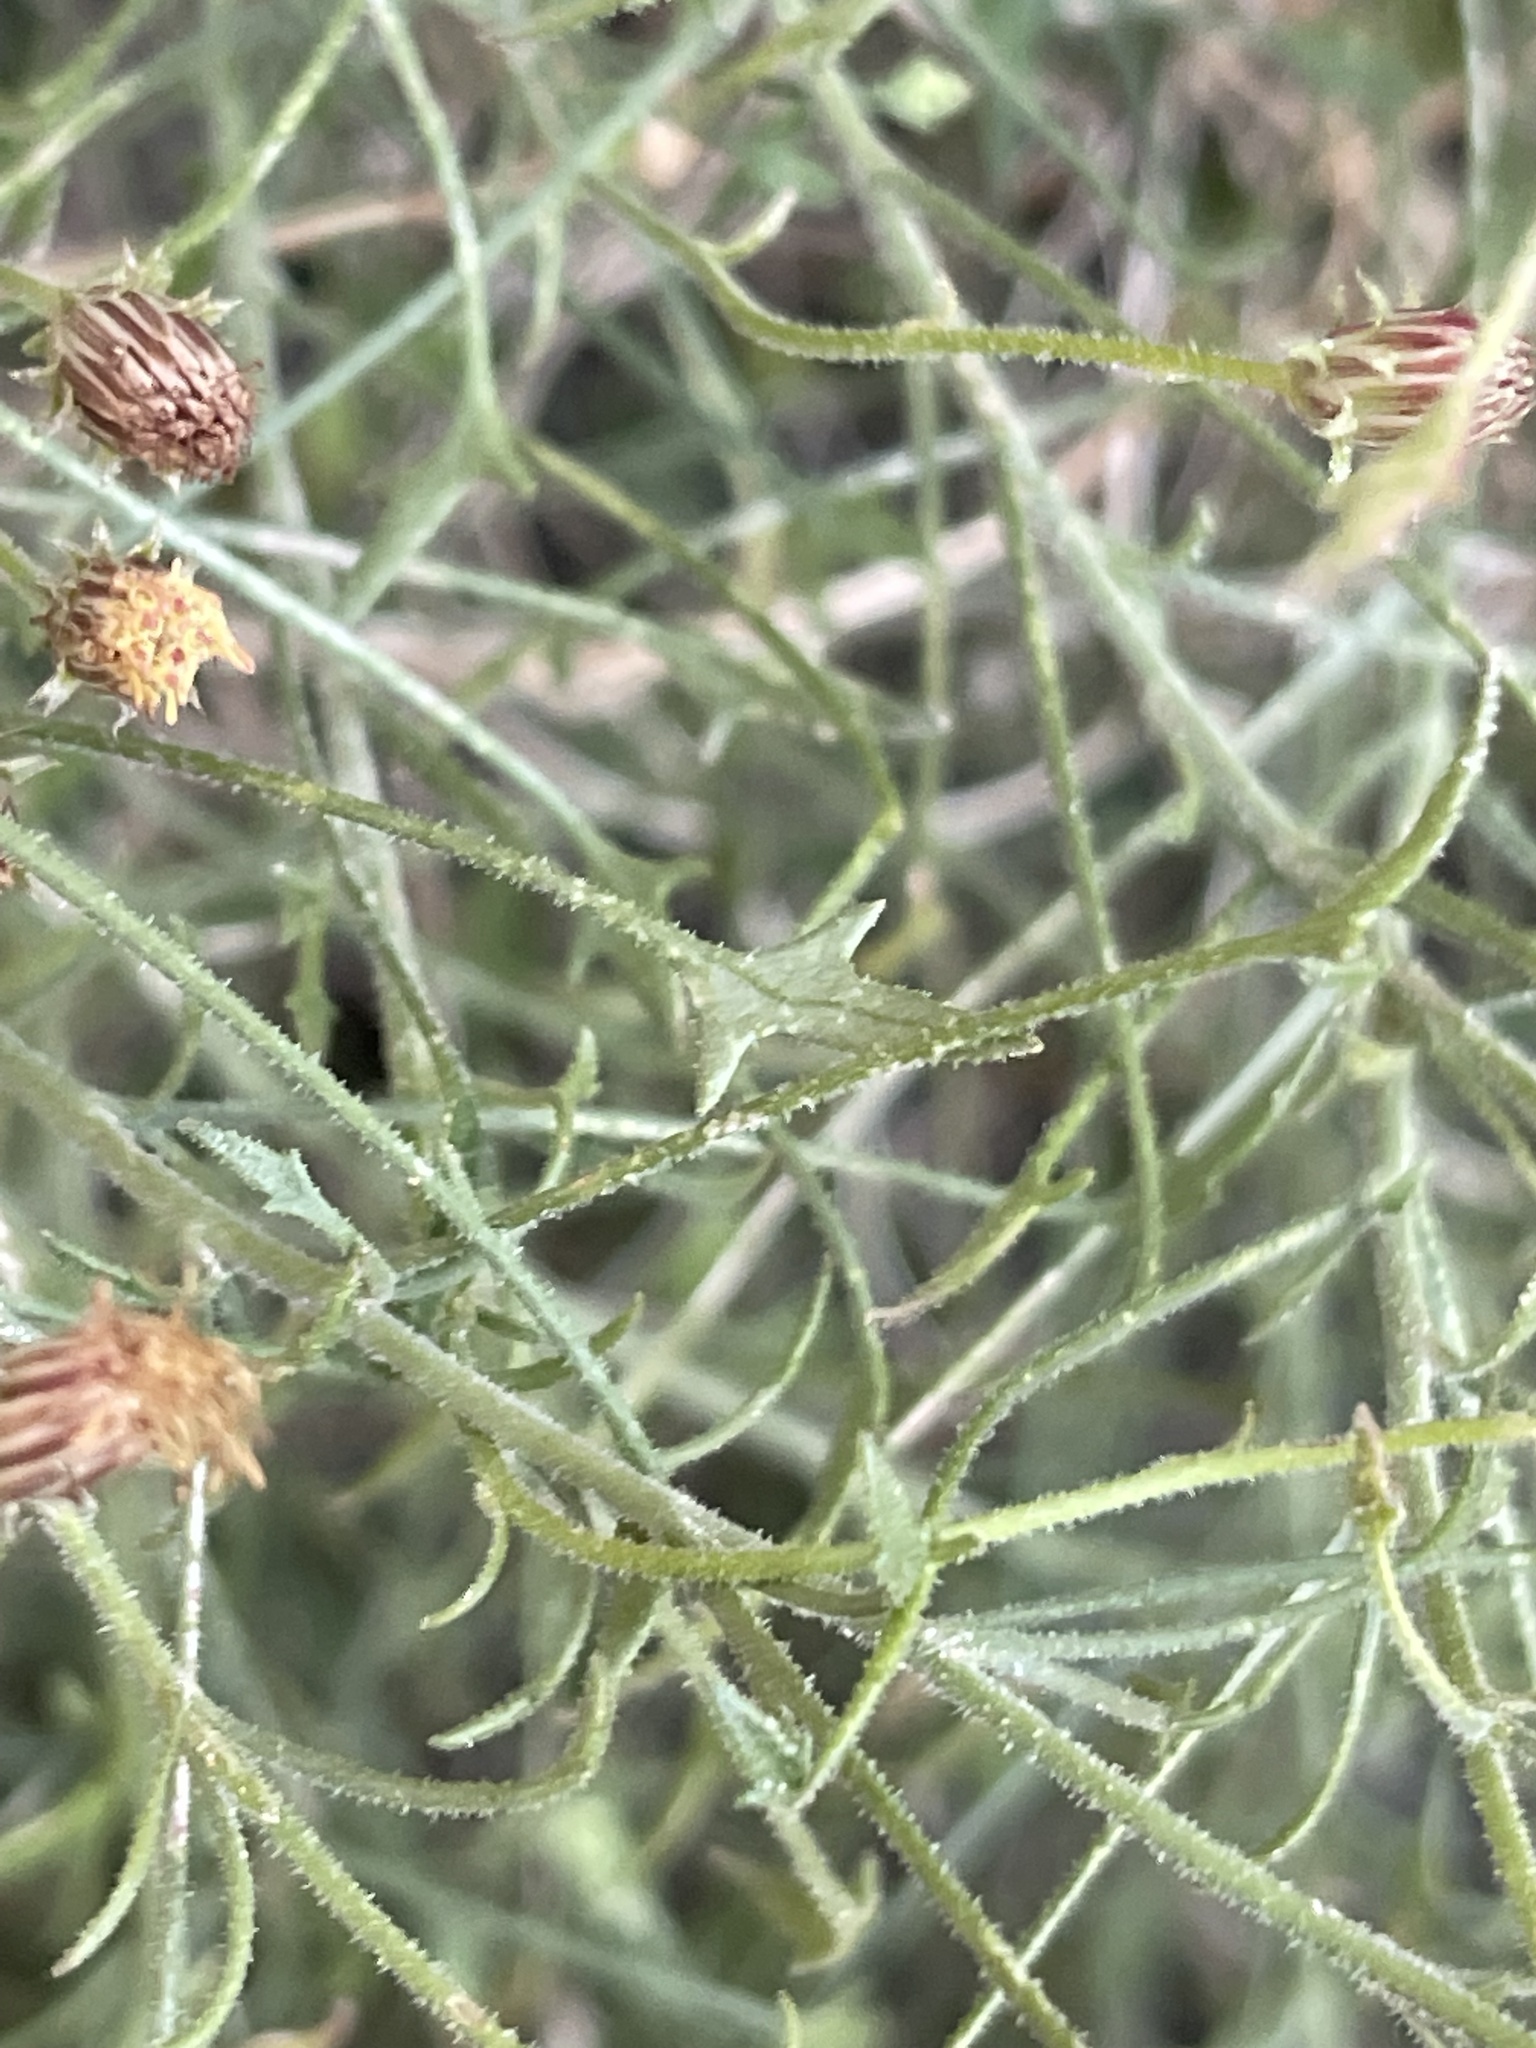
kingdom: Plantae
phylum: Tracheophyta
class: Magnoliopsida
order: Asterales
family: Asteraceae
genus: Pleurocoronis
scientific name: Pleurocoronis pluriseta
